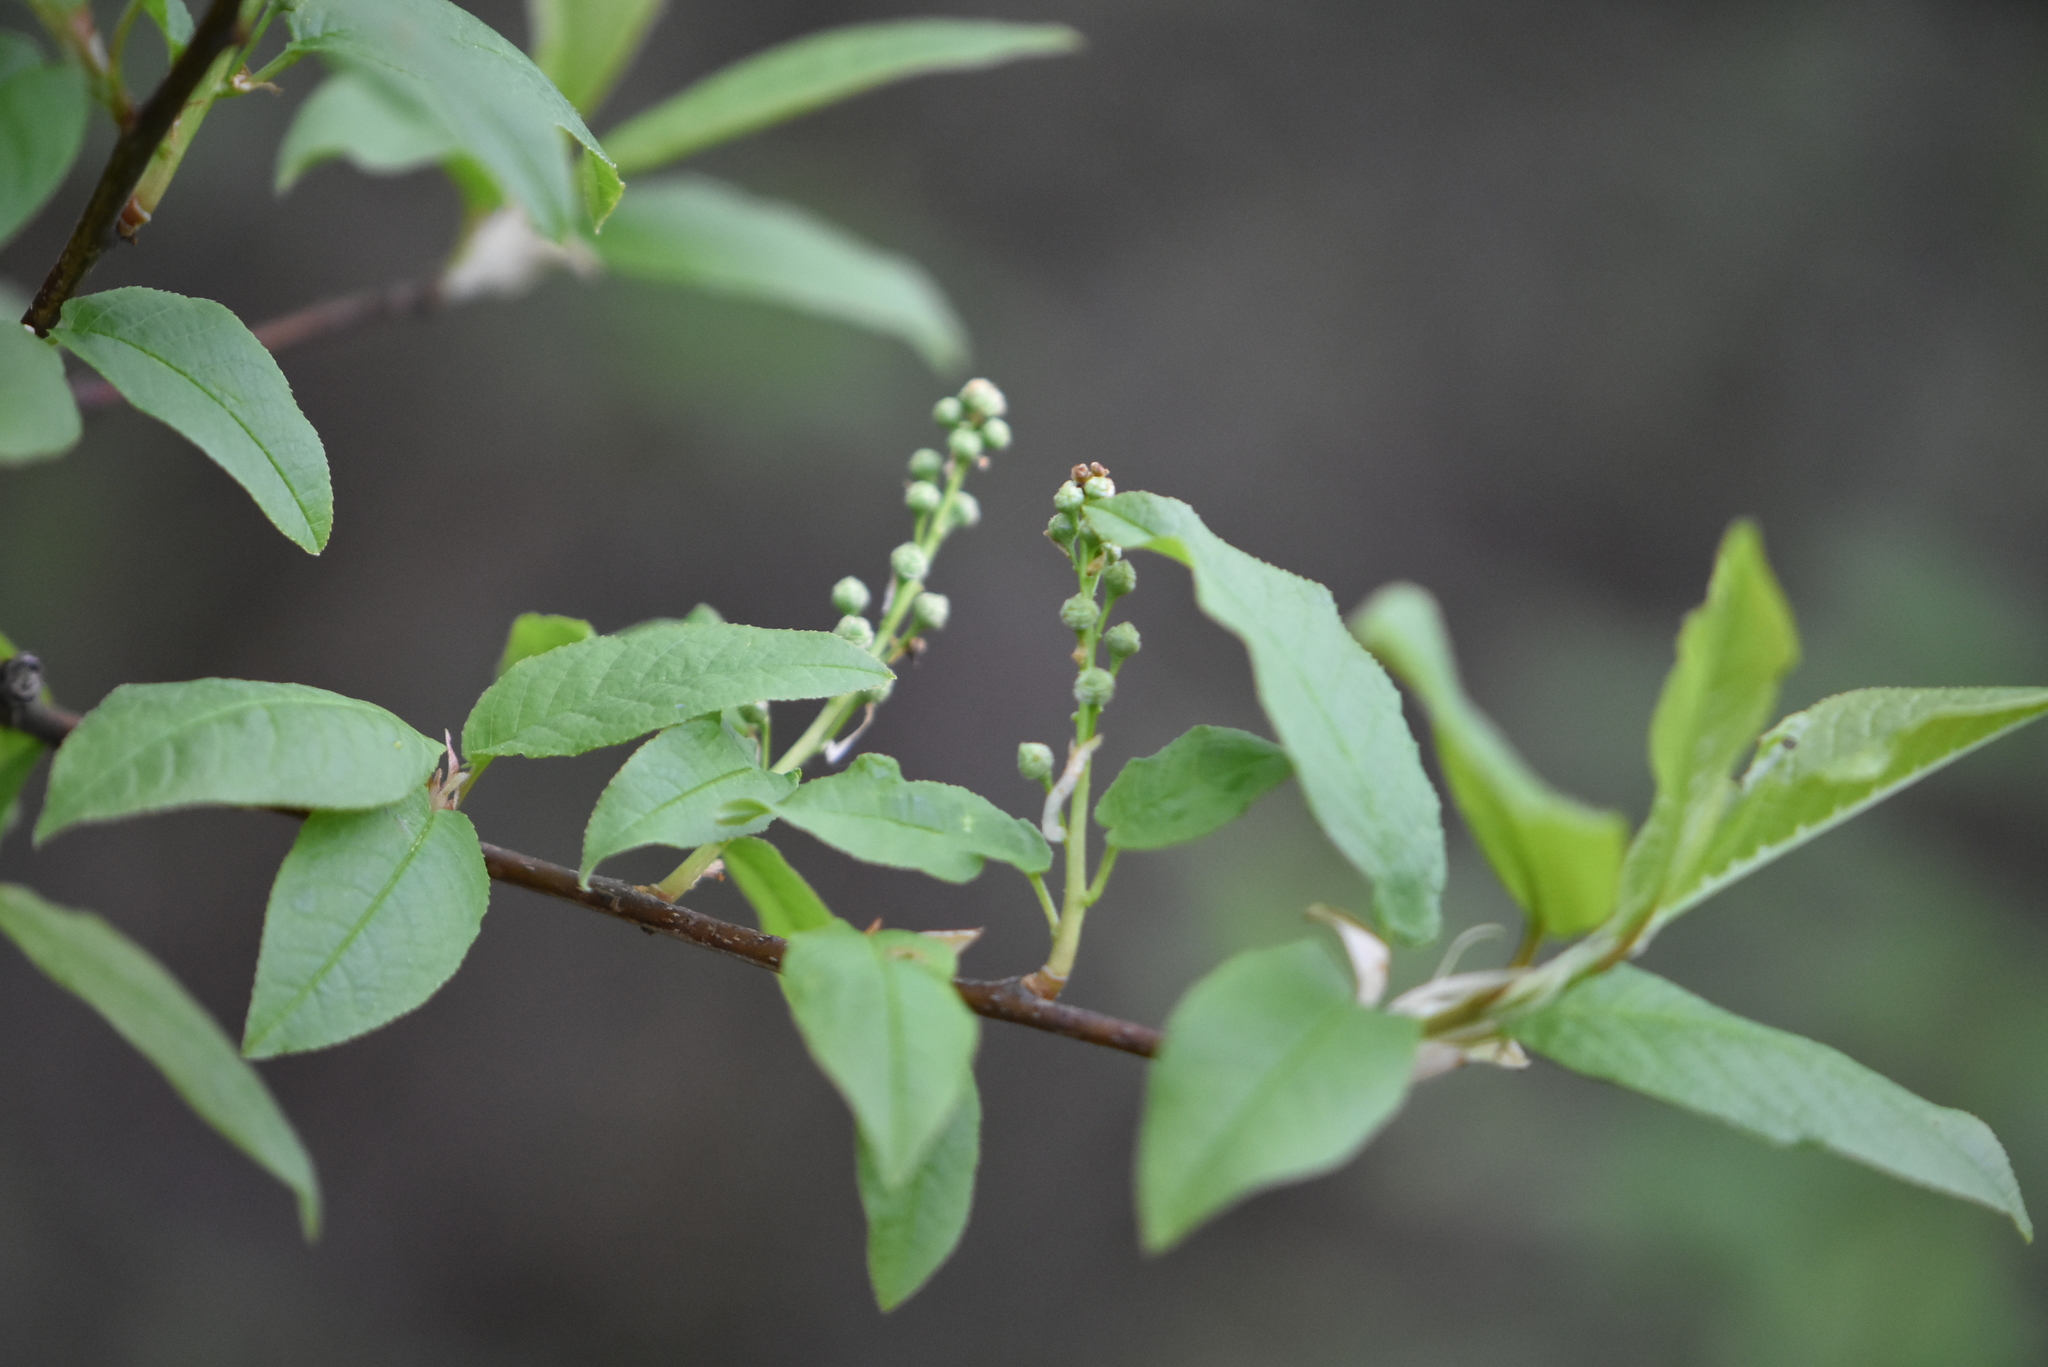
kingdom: Plantae
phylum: Tracheophyta
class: Magnoliopsida
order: Rosales
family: Rosaceae
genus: Prunus
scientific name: Prunus padus
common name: Bird cherry
